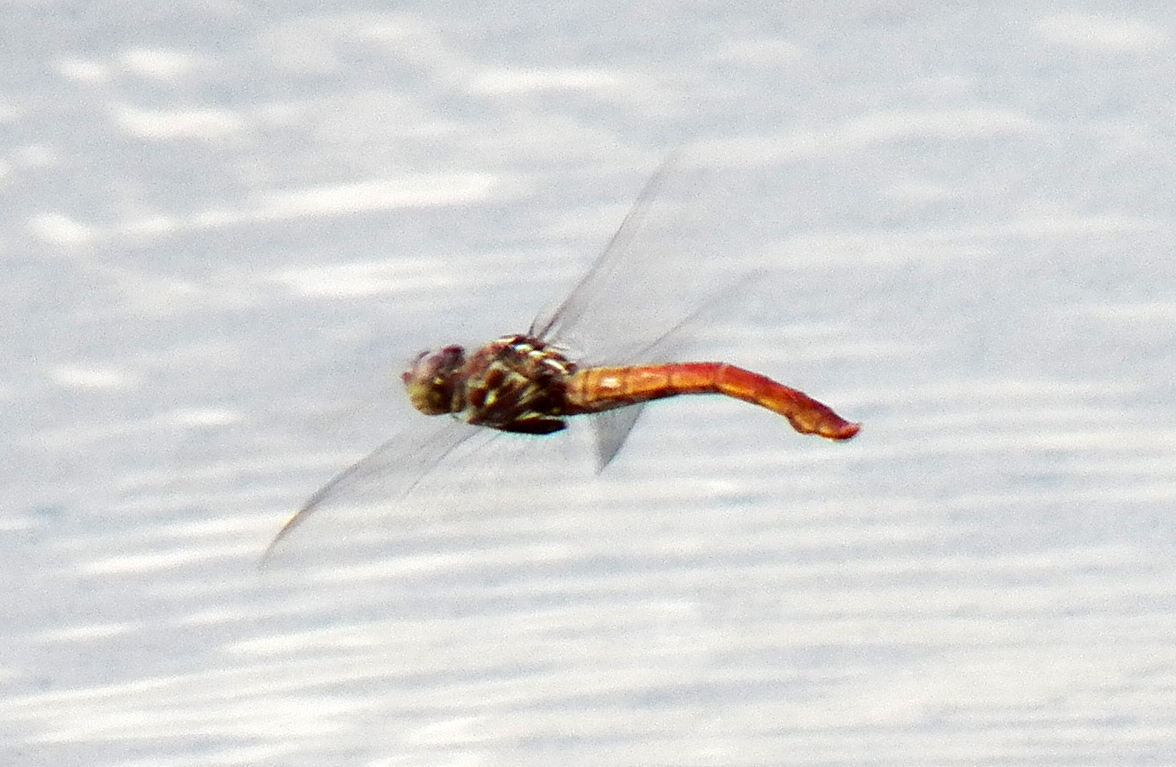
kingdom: Animalia
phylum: Arthropoda
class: Insecta
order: Odonata
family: Libellulidae
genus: Orthemis
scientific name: Orthemis ferruginea
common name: Roseate skimmer
